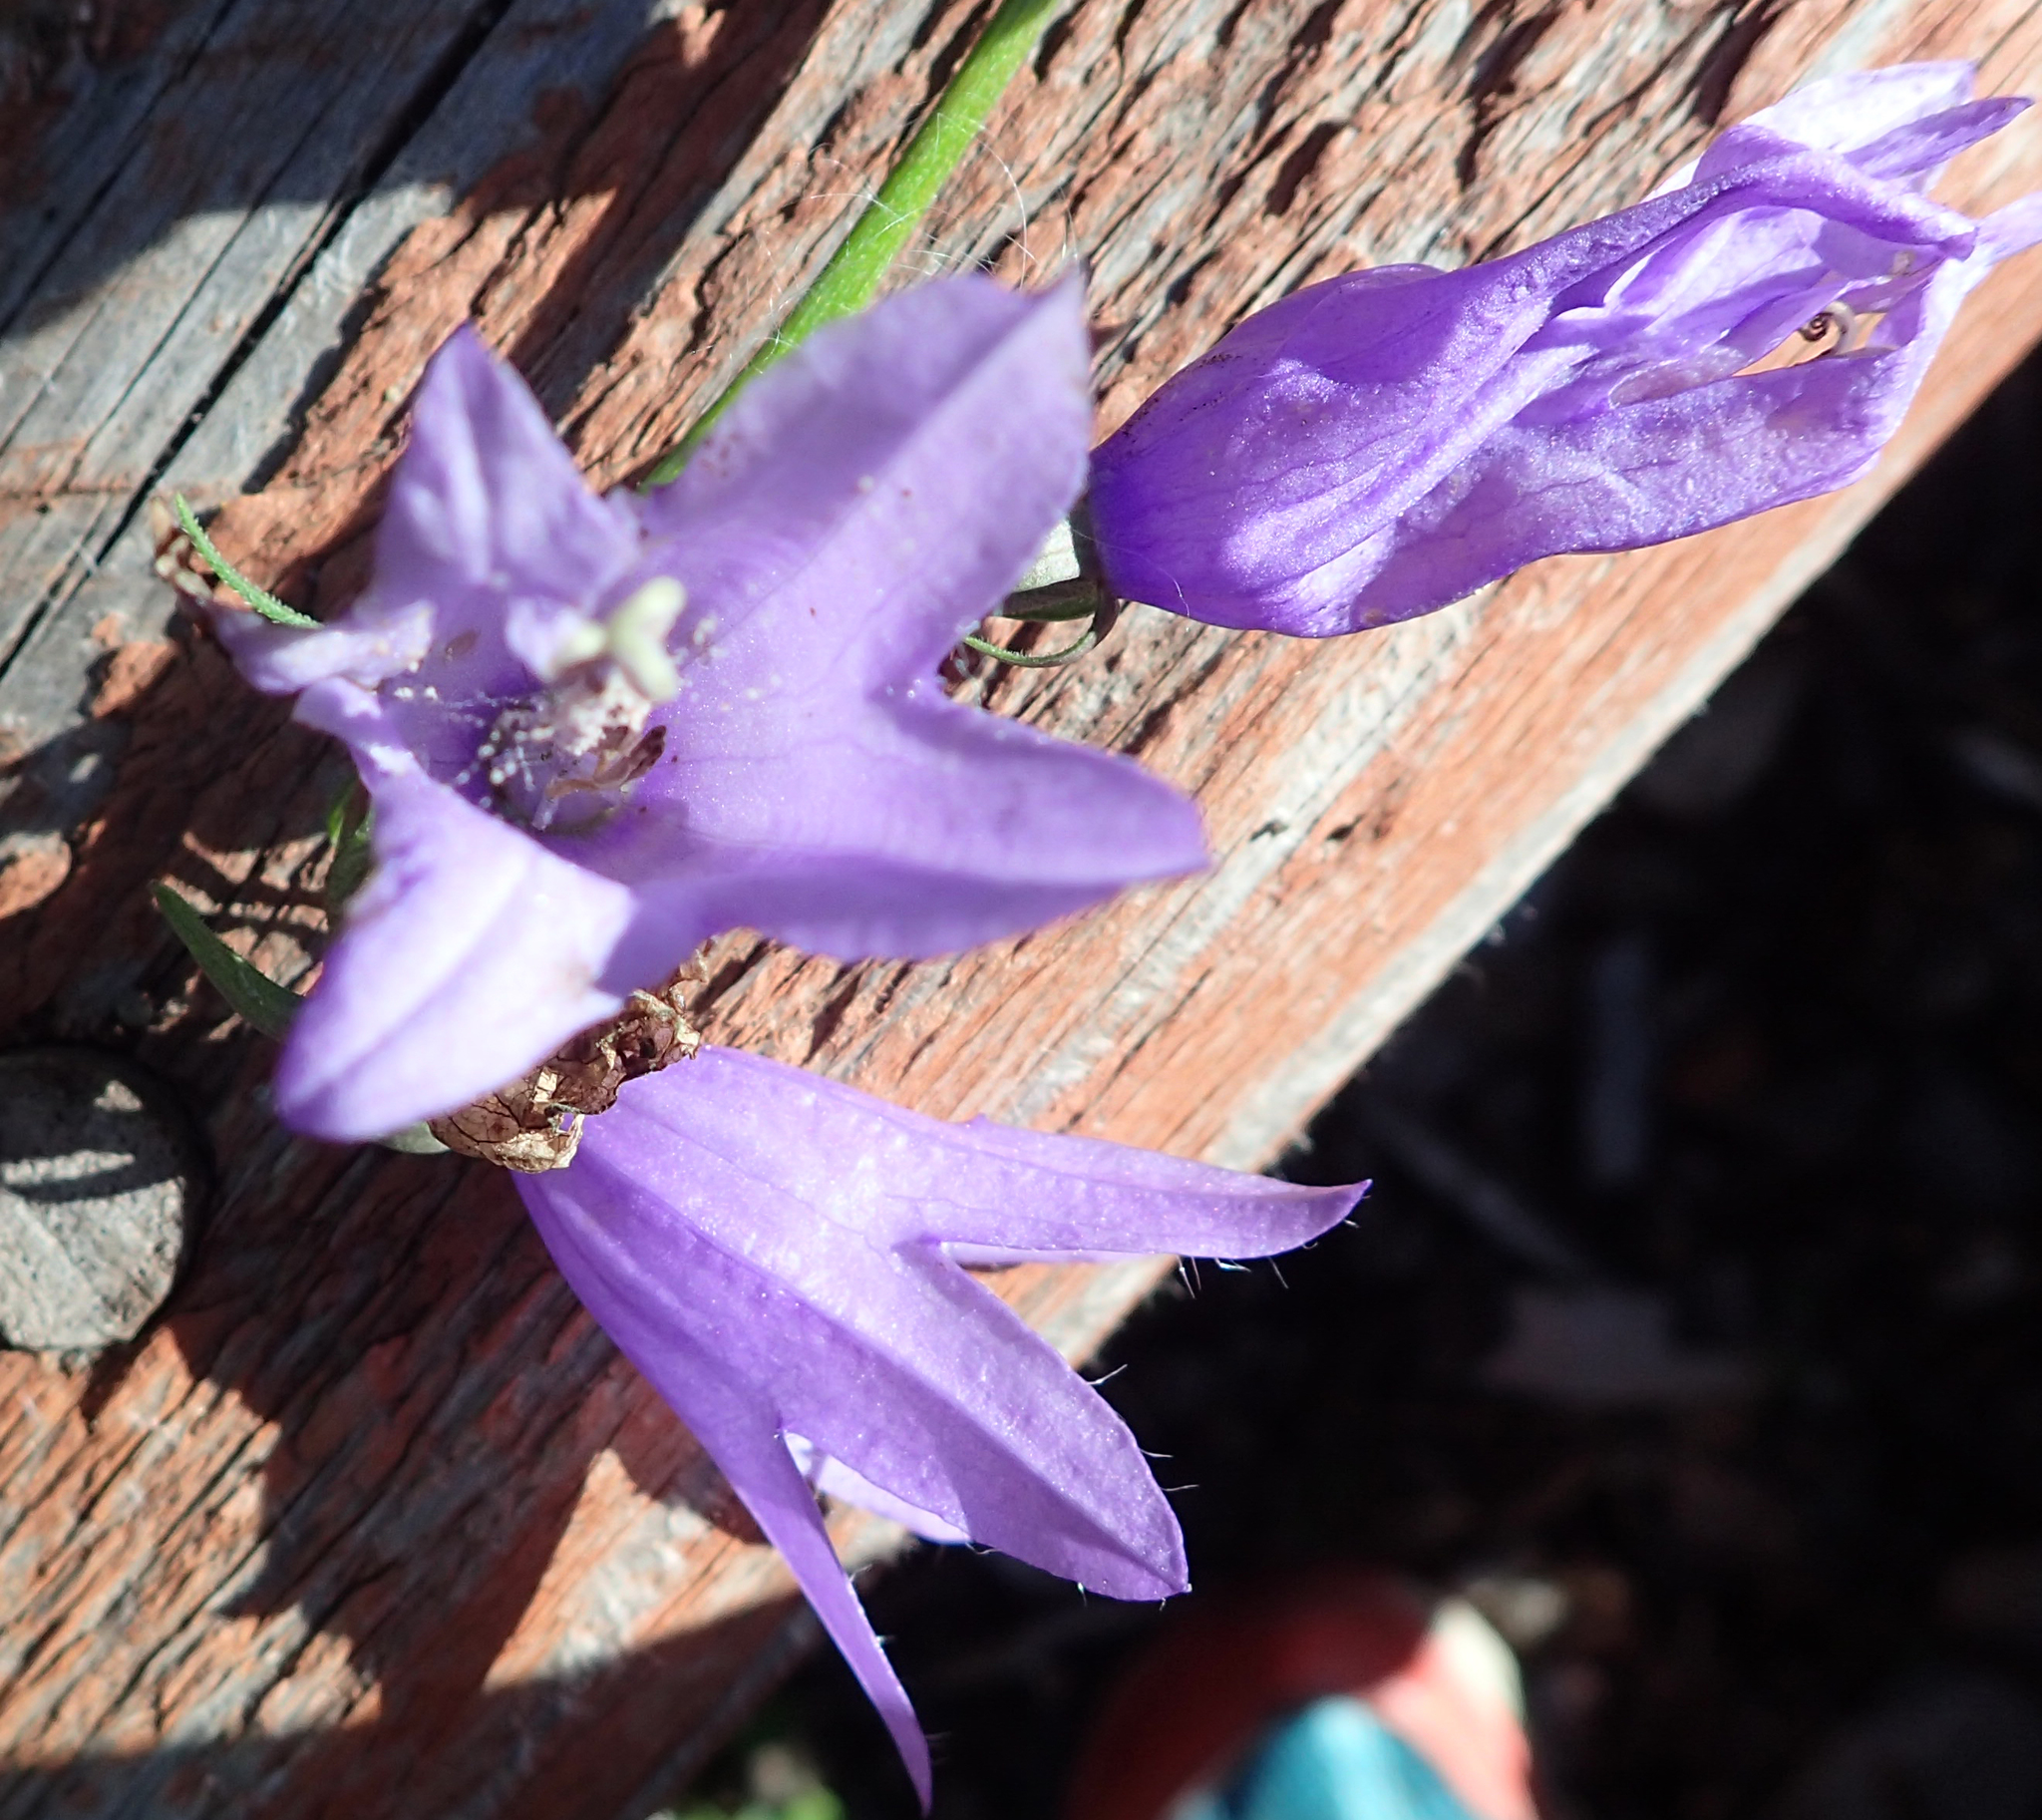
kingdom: Plantae
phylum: Tracheophyta
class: Magnoliopsida
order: Asterales
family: Campanulaceae
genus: Campanula
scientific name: Campanula rapunculoides
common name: Creeping bellflower
